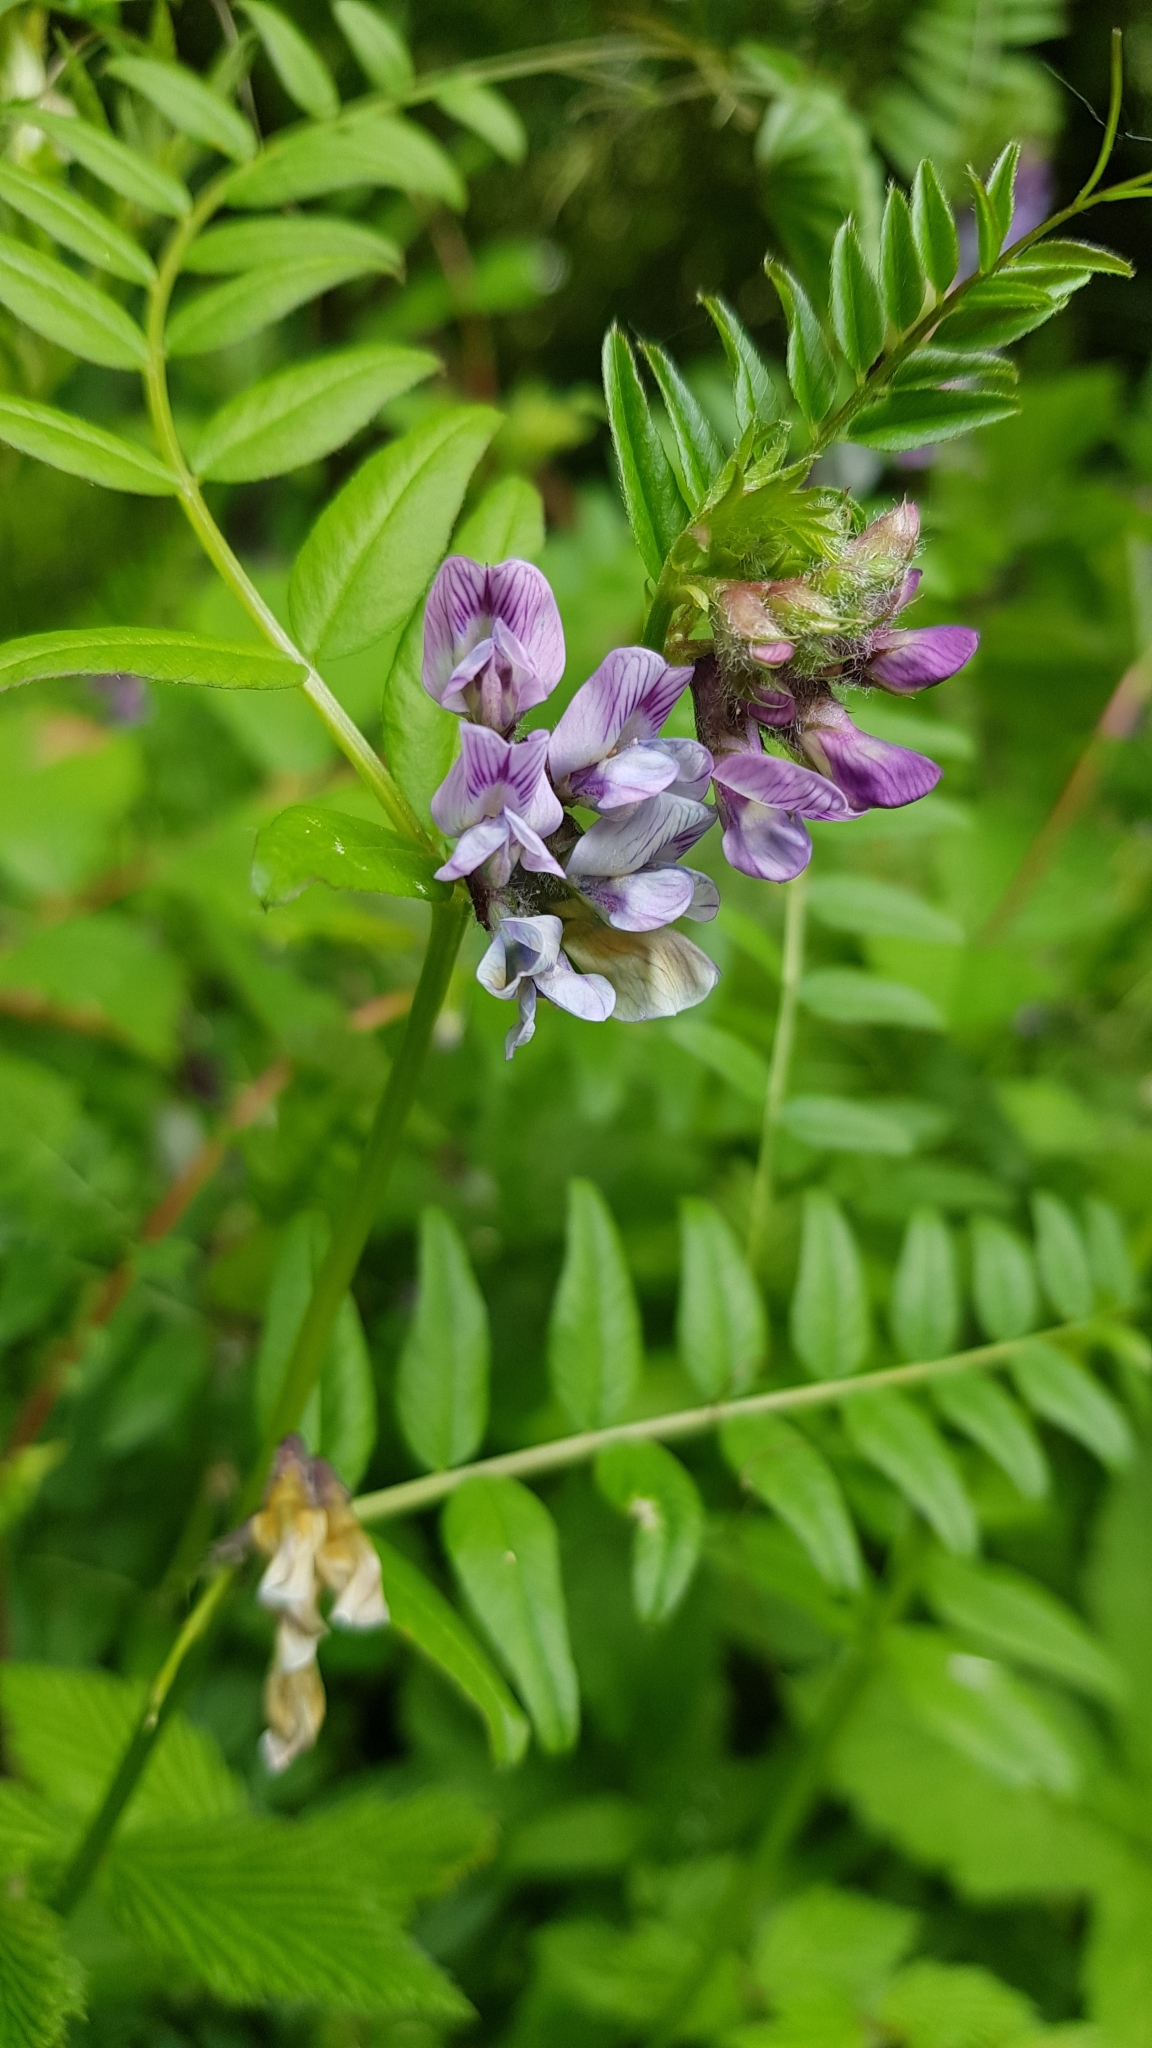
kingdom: Plantae
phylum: Tracheophyta
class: Magnoliopsida
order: Fabales
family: Fabaceae
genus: Vicia
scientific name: Vicia sepium
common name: Bush vetch
